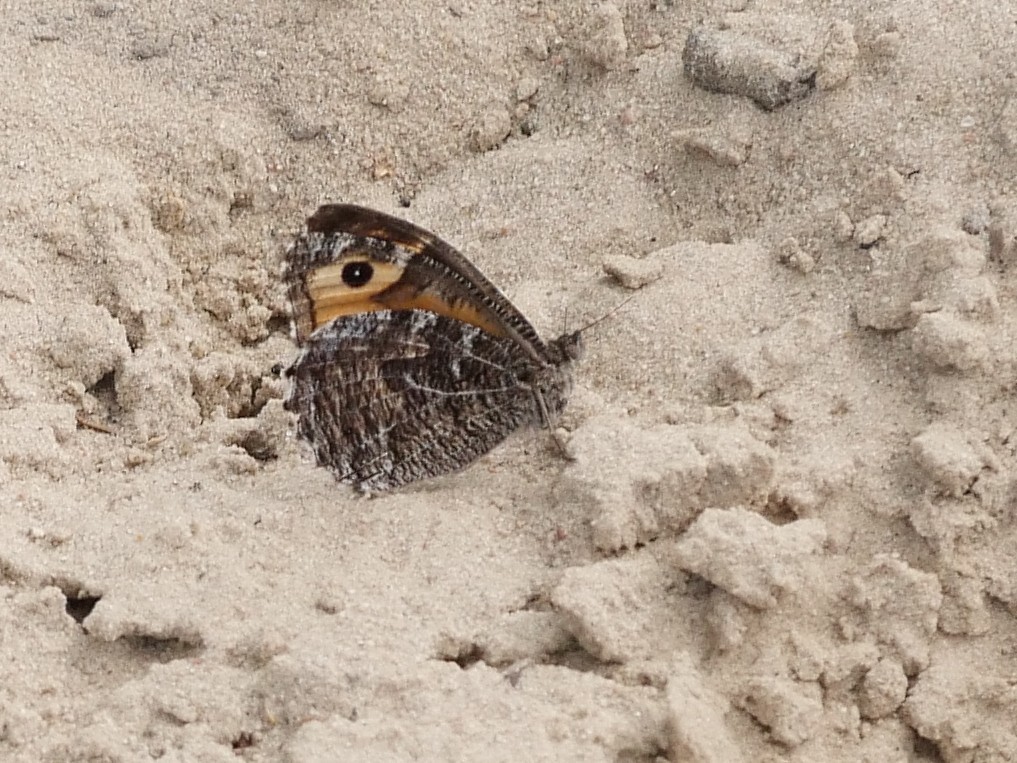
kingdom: Animalia
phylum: Arthropoda
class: Insecta
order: Lepidoptera
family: Nymphalidae
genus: Hipparchia
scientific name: Hipparchia semele
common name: Grayling
